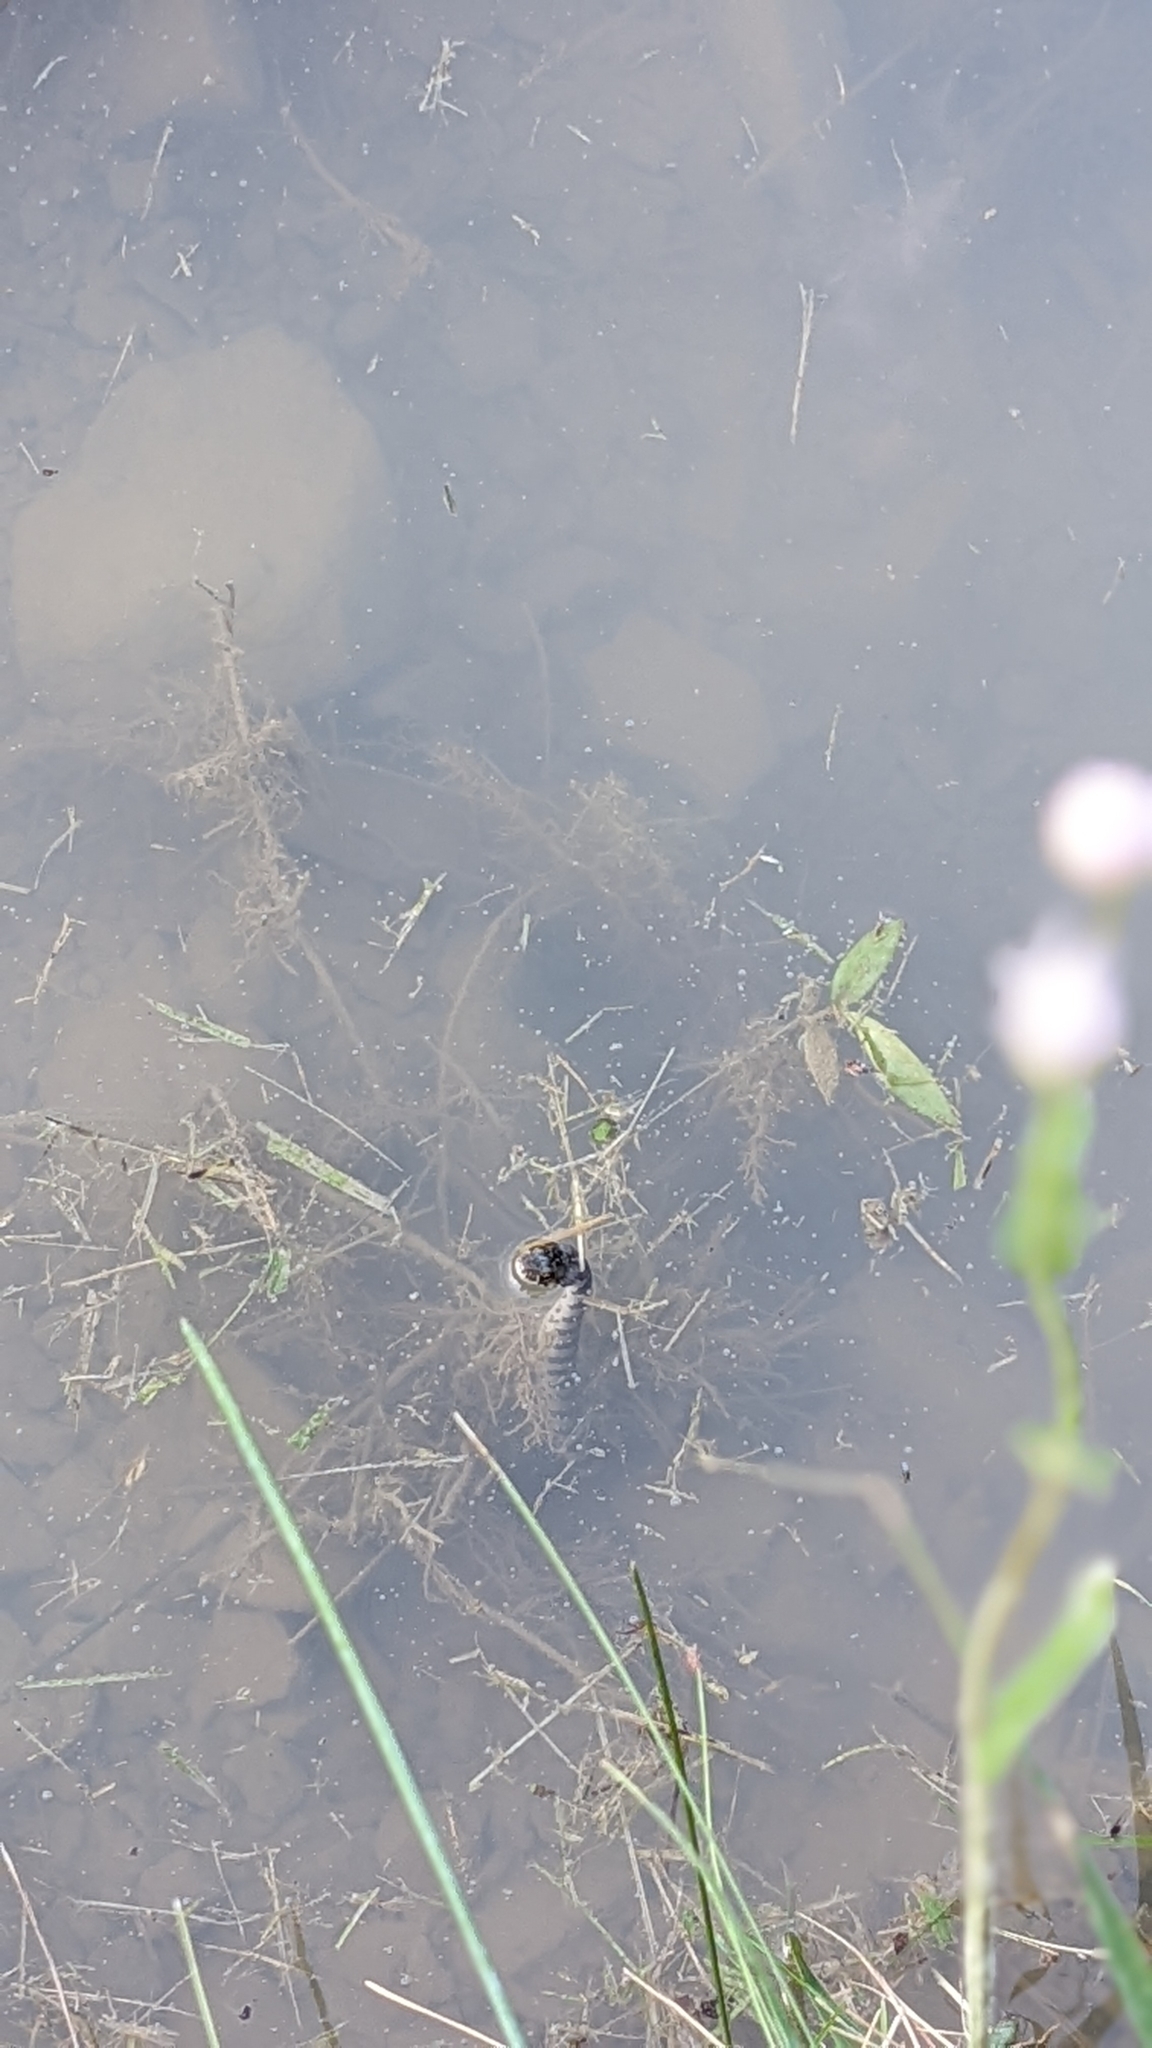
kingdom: Animalia
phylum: Chordata
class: Squamata
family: Colubridae
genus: Nerodia
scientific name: Nerodia sipedon
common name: Northern water snake
